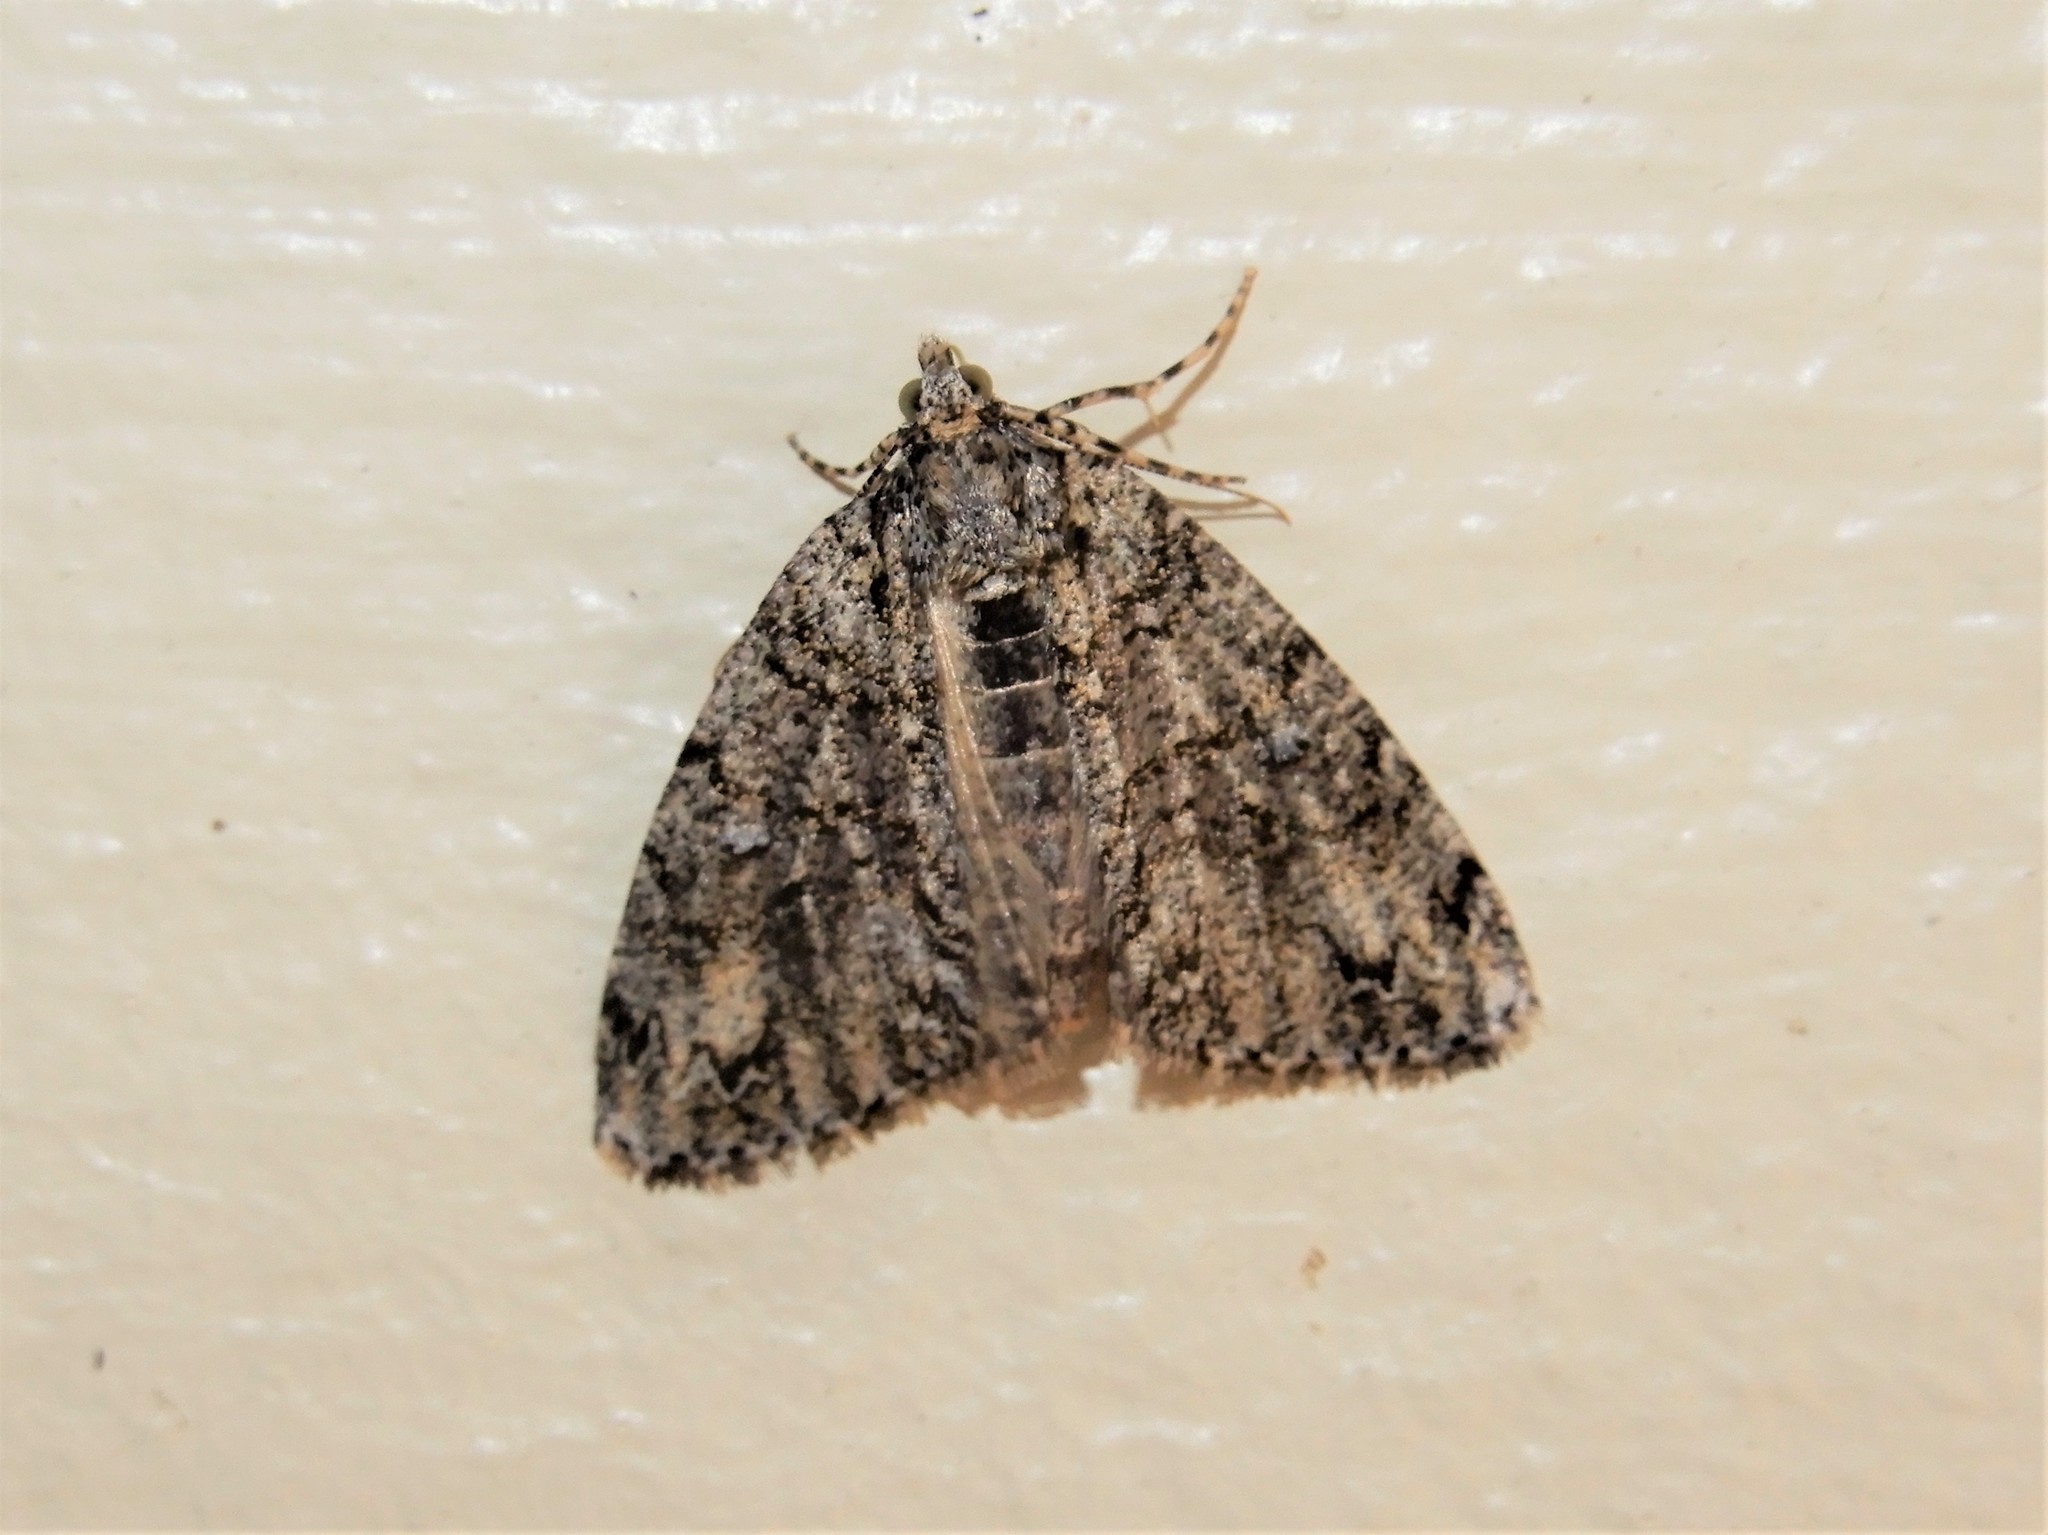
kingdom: Animalia
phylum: Arthropoda
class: Insecta
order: Lepidoptera
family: Geometridae
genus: Pseudocoremia
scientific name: Pseudocoremia suavis
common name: Common forest looper
